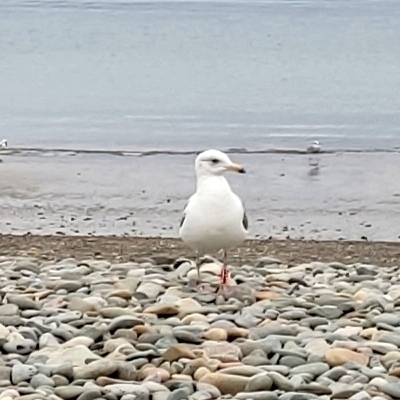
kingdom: Animalia
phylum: Chordata
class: Aves
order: Charadriiformes
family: Laridae
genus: Larus
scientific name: Larus argentatus
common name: Herring gull
